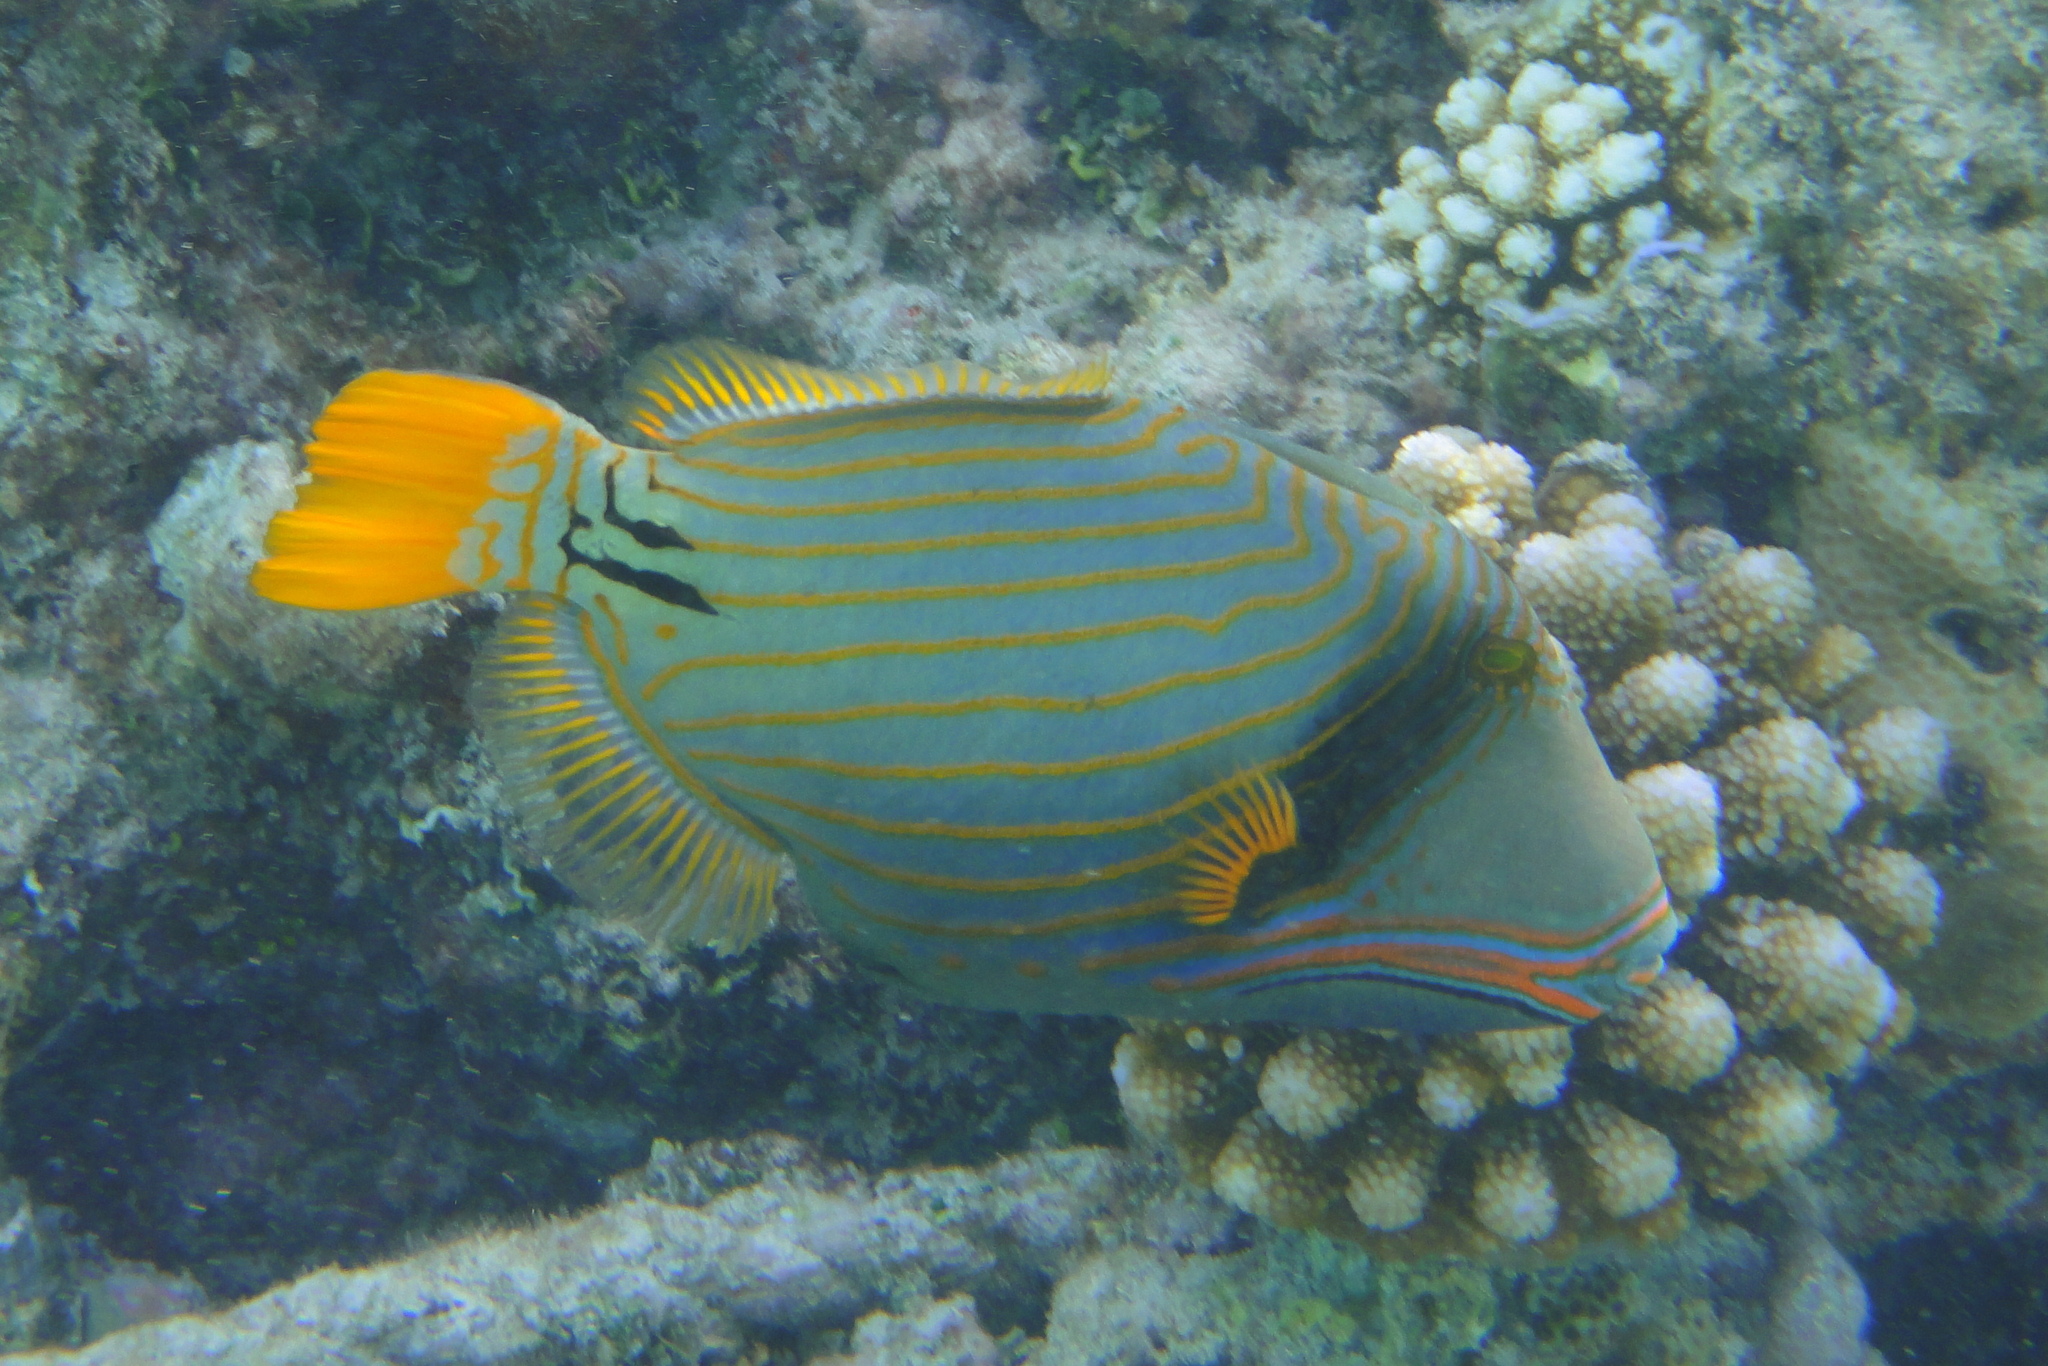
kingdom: Animalia
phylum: Chordata
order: Tetraodontiformes
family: Balistidae
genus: Balistapus
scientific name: Balistapus undulatus
